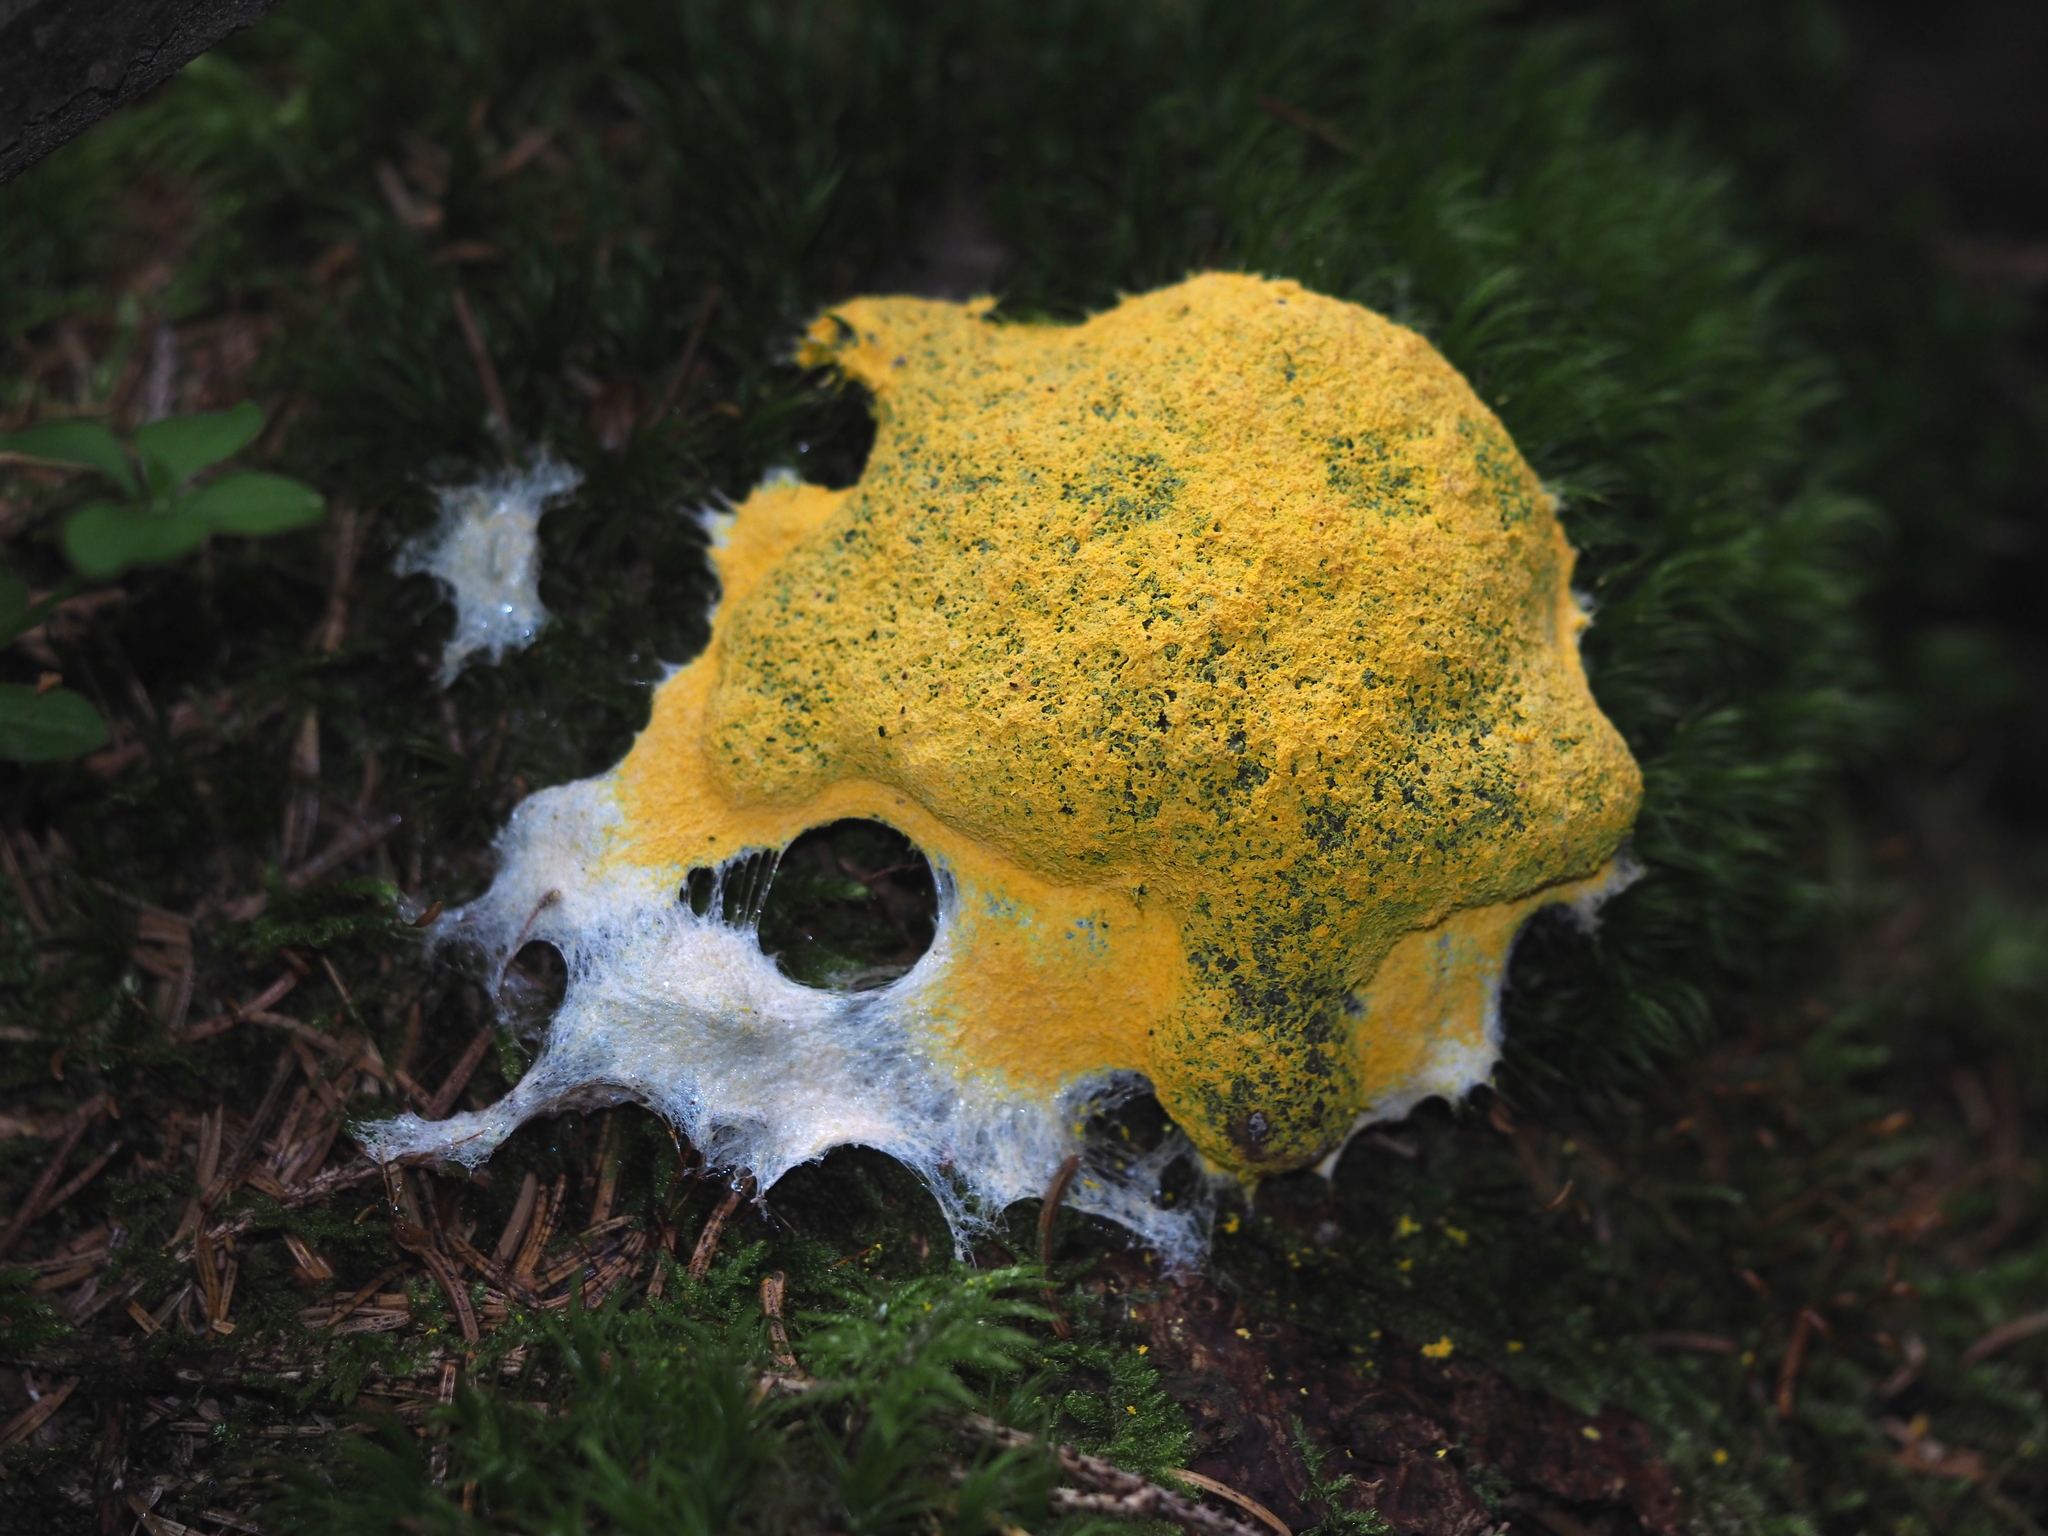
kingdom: Protozoa
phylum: Mycetozoa
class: Myxomycetes
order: Physarales
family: Physaraceae
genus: Fuligo
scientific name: Fuligo septica
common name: Dog vomit slime mold
